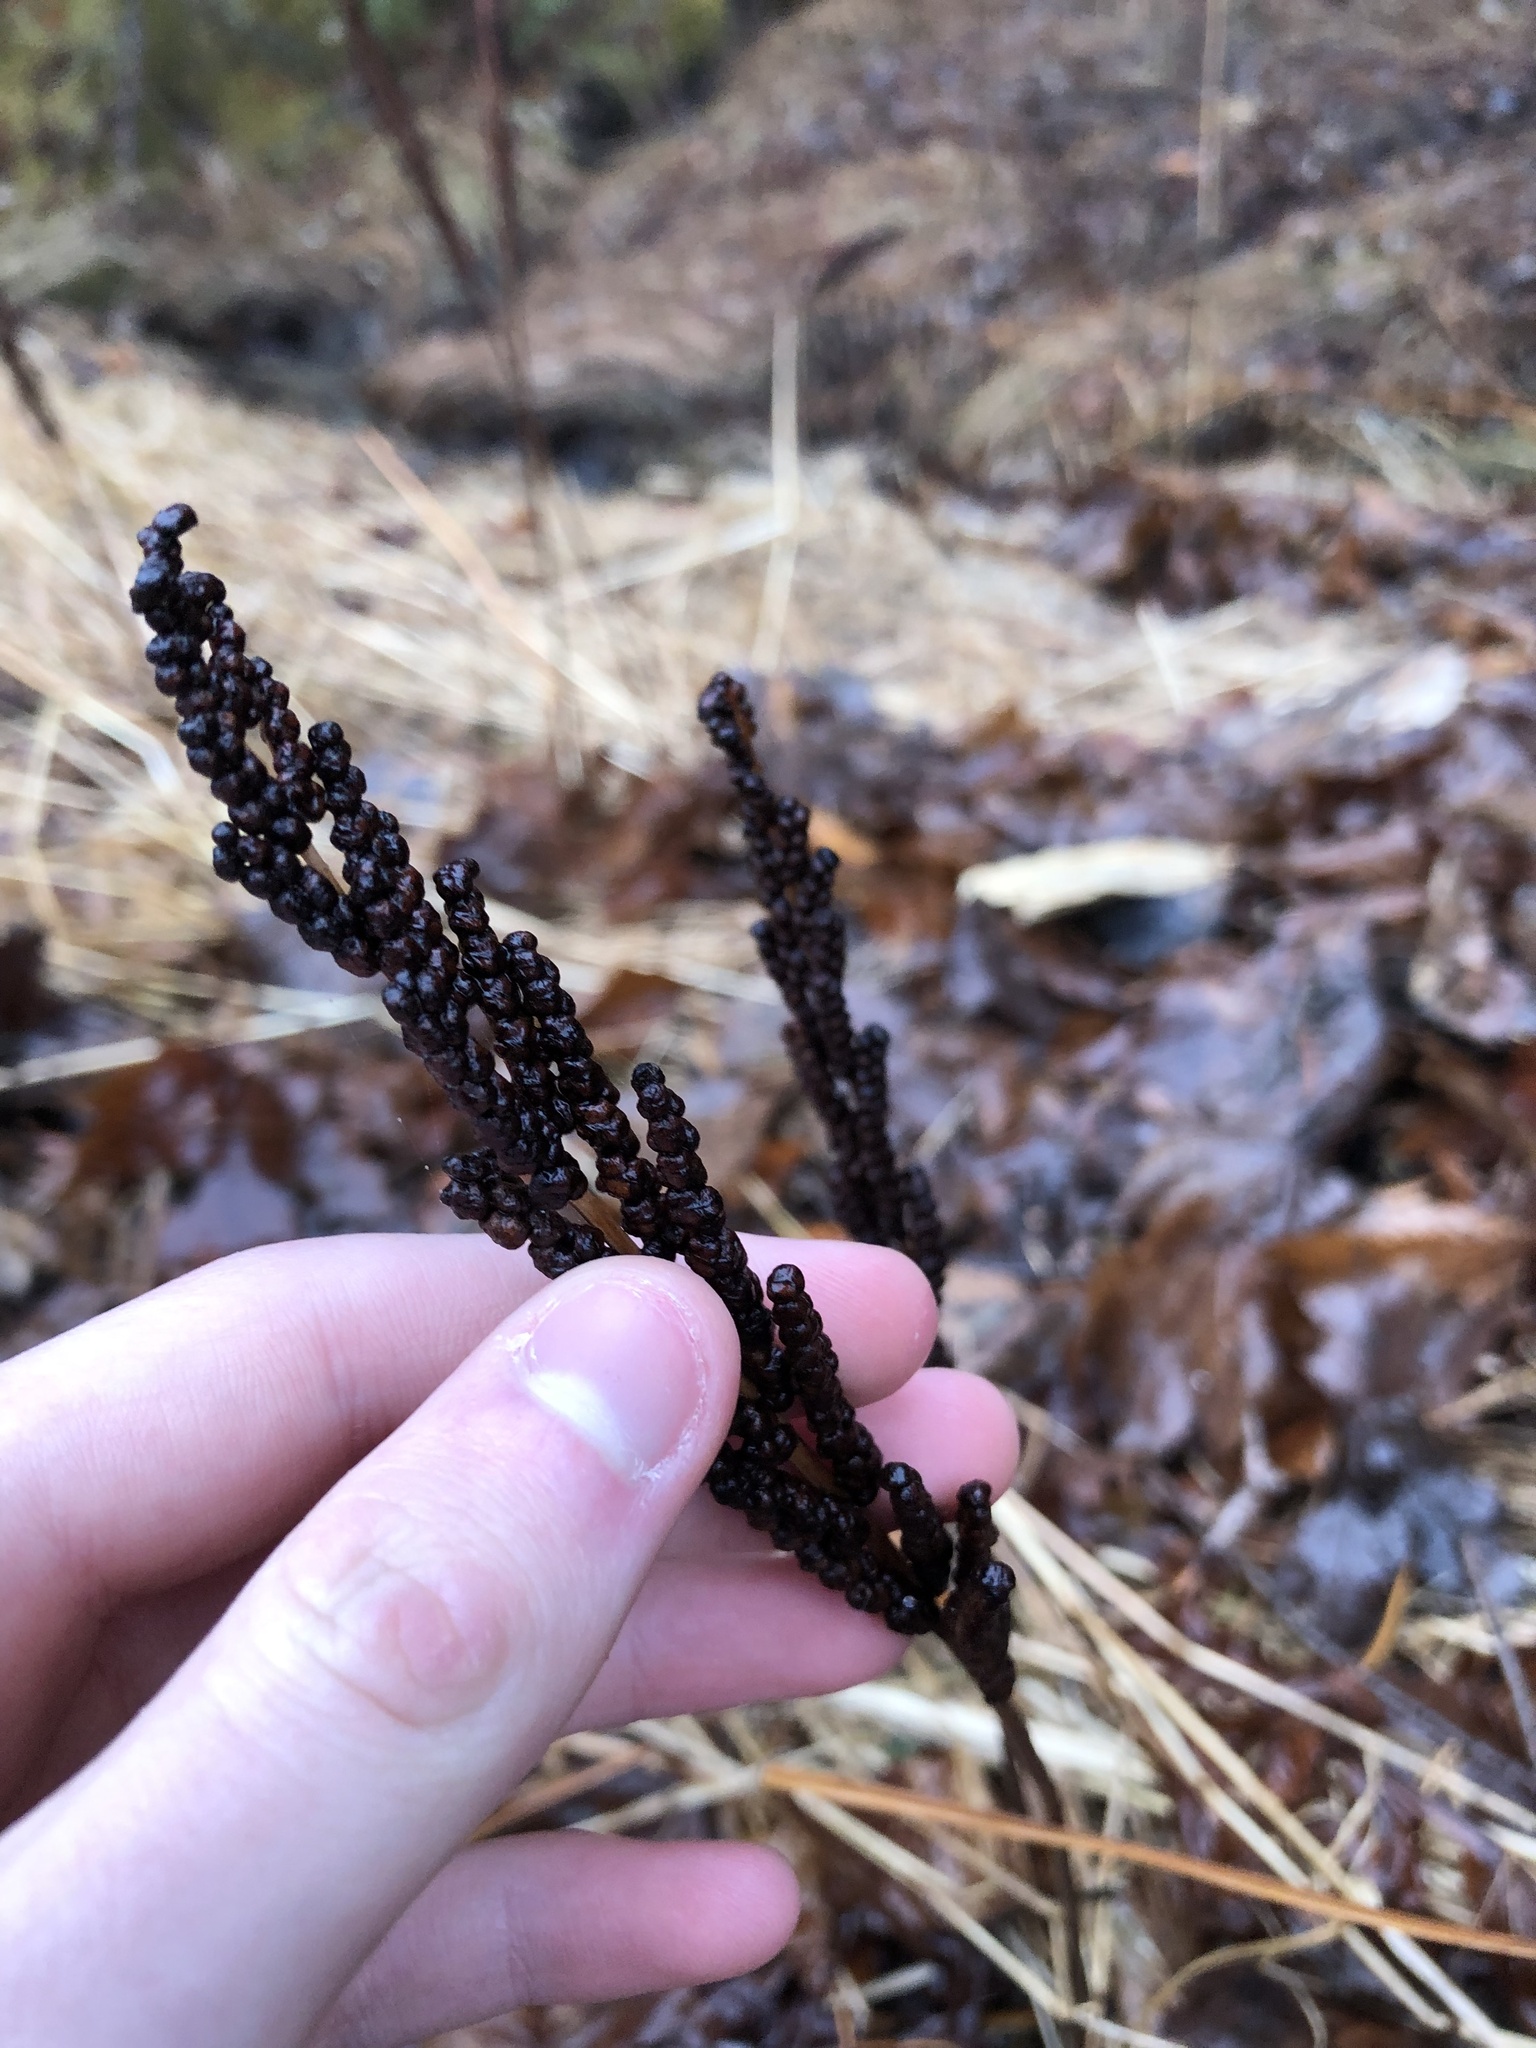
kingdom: Plantae
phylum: Tracheophyta
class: Polypodiopsida
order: Polypodiales
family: Onocleaceae
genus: Onoclea
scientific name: Onoclea sensibilis
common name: Sensitive fern
